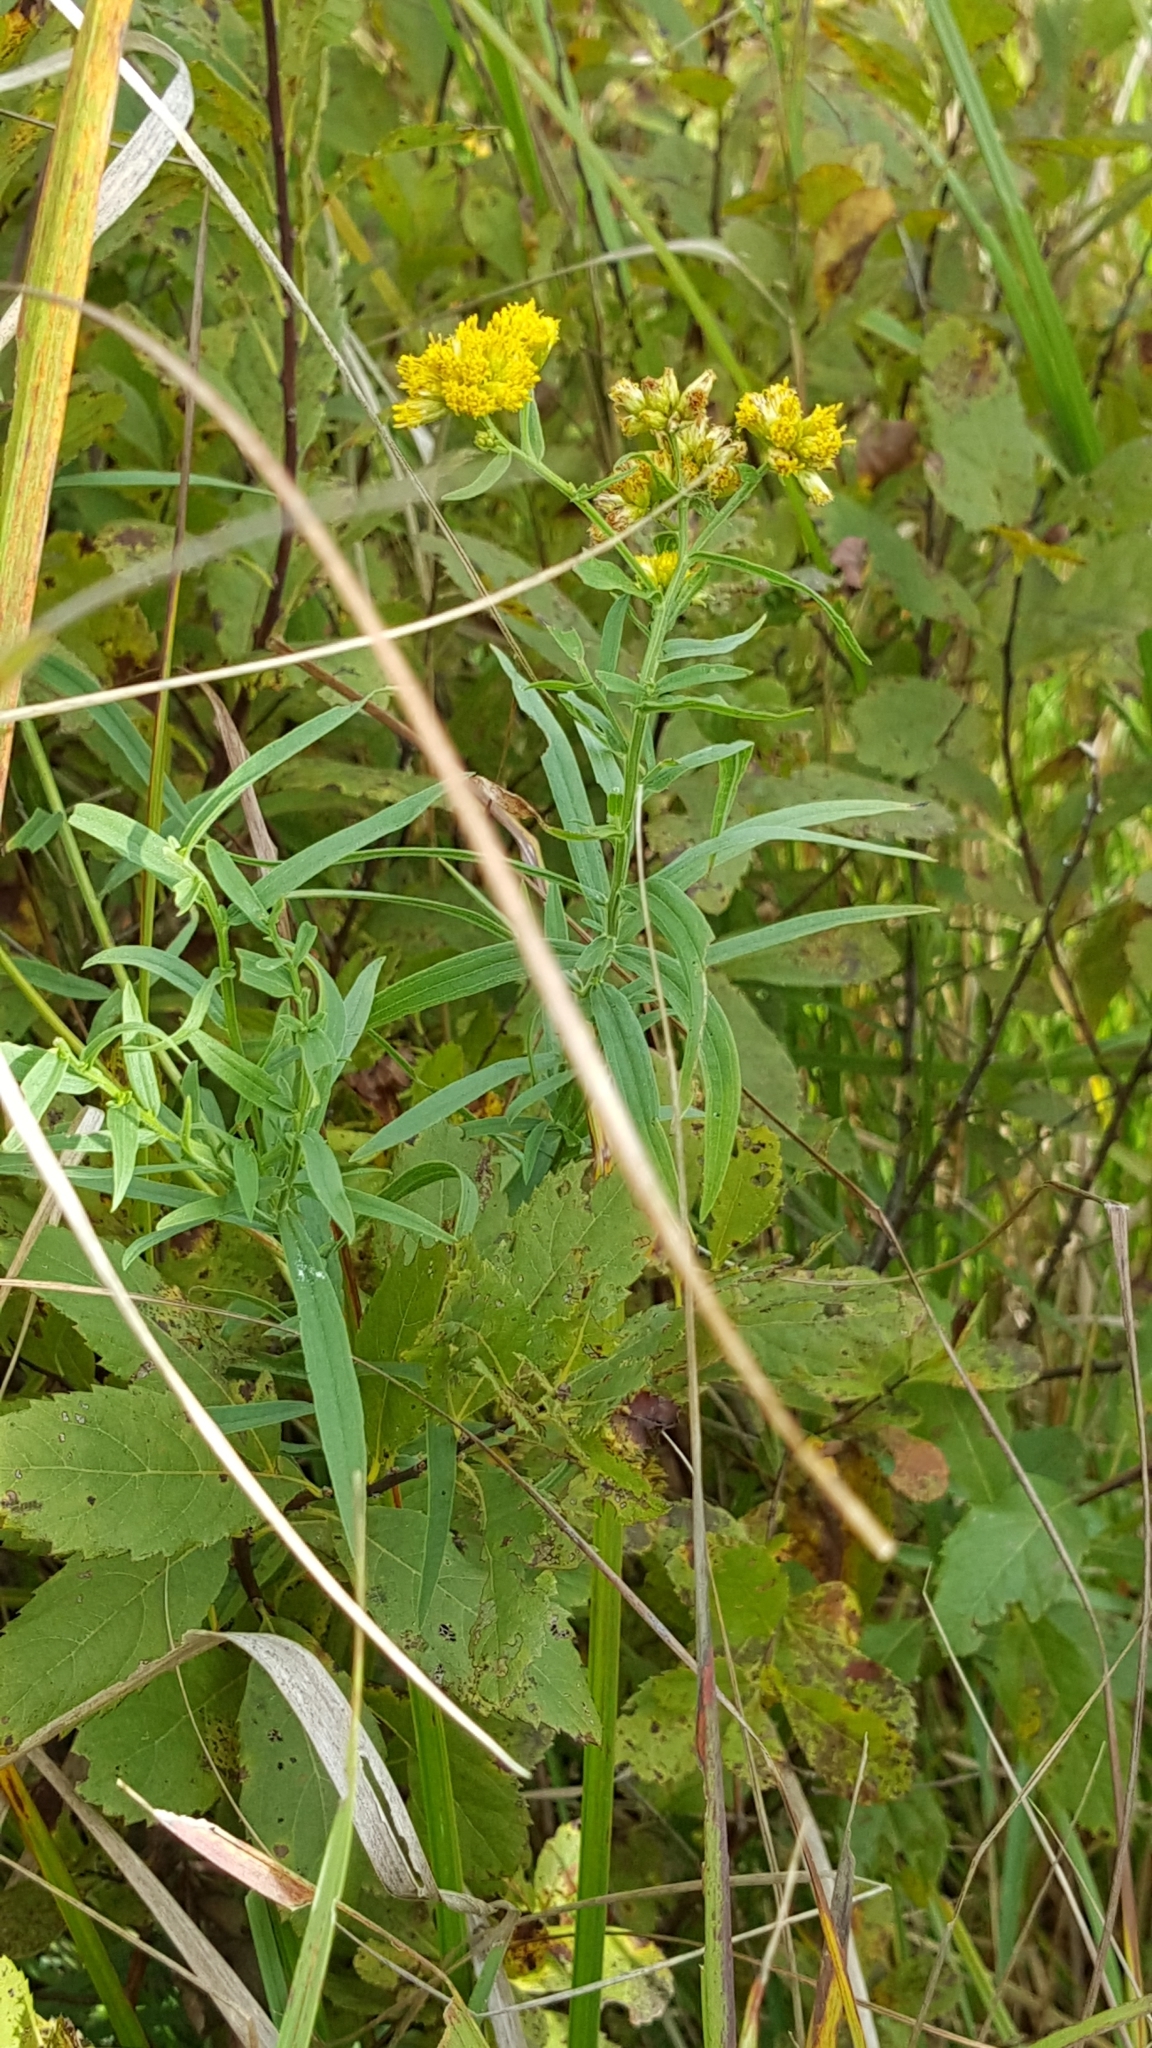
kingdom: Plantae
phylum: Tracheophyta
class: Magnoliopsida
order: Asterales
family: Asteraceae
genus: Euthamia
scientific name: Euthamia graminifolia
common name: Common goldentop
